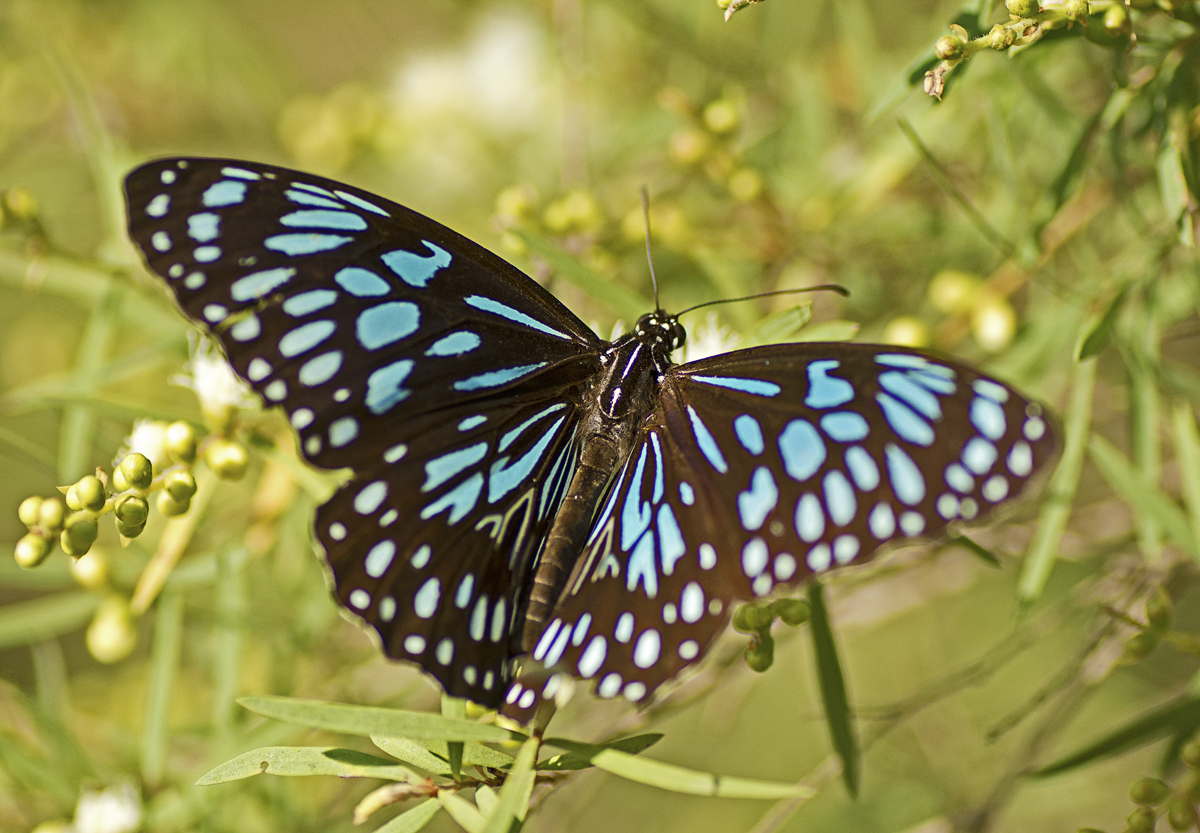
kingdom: Animalia
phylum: Arthropoda
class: Insecta
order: Lepidoptera
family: Nymphalidae
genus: Tirumala
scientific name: Tirumala hamata
